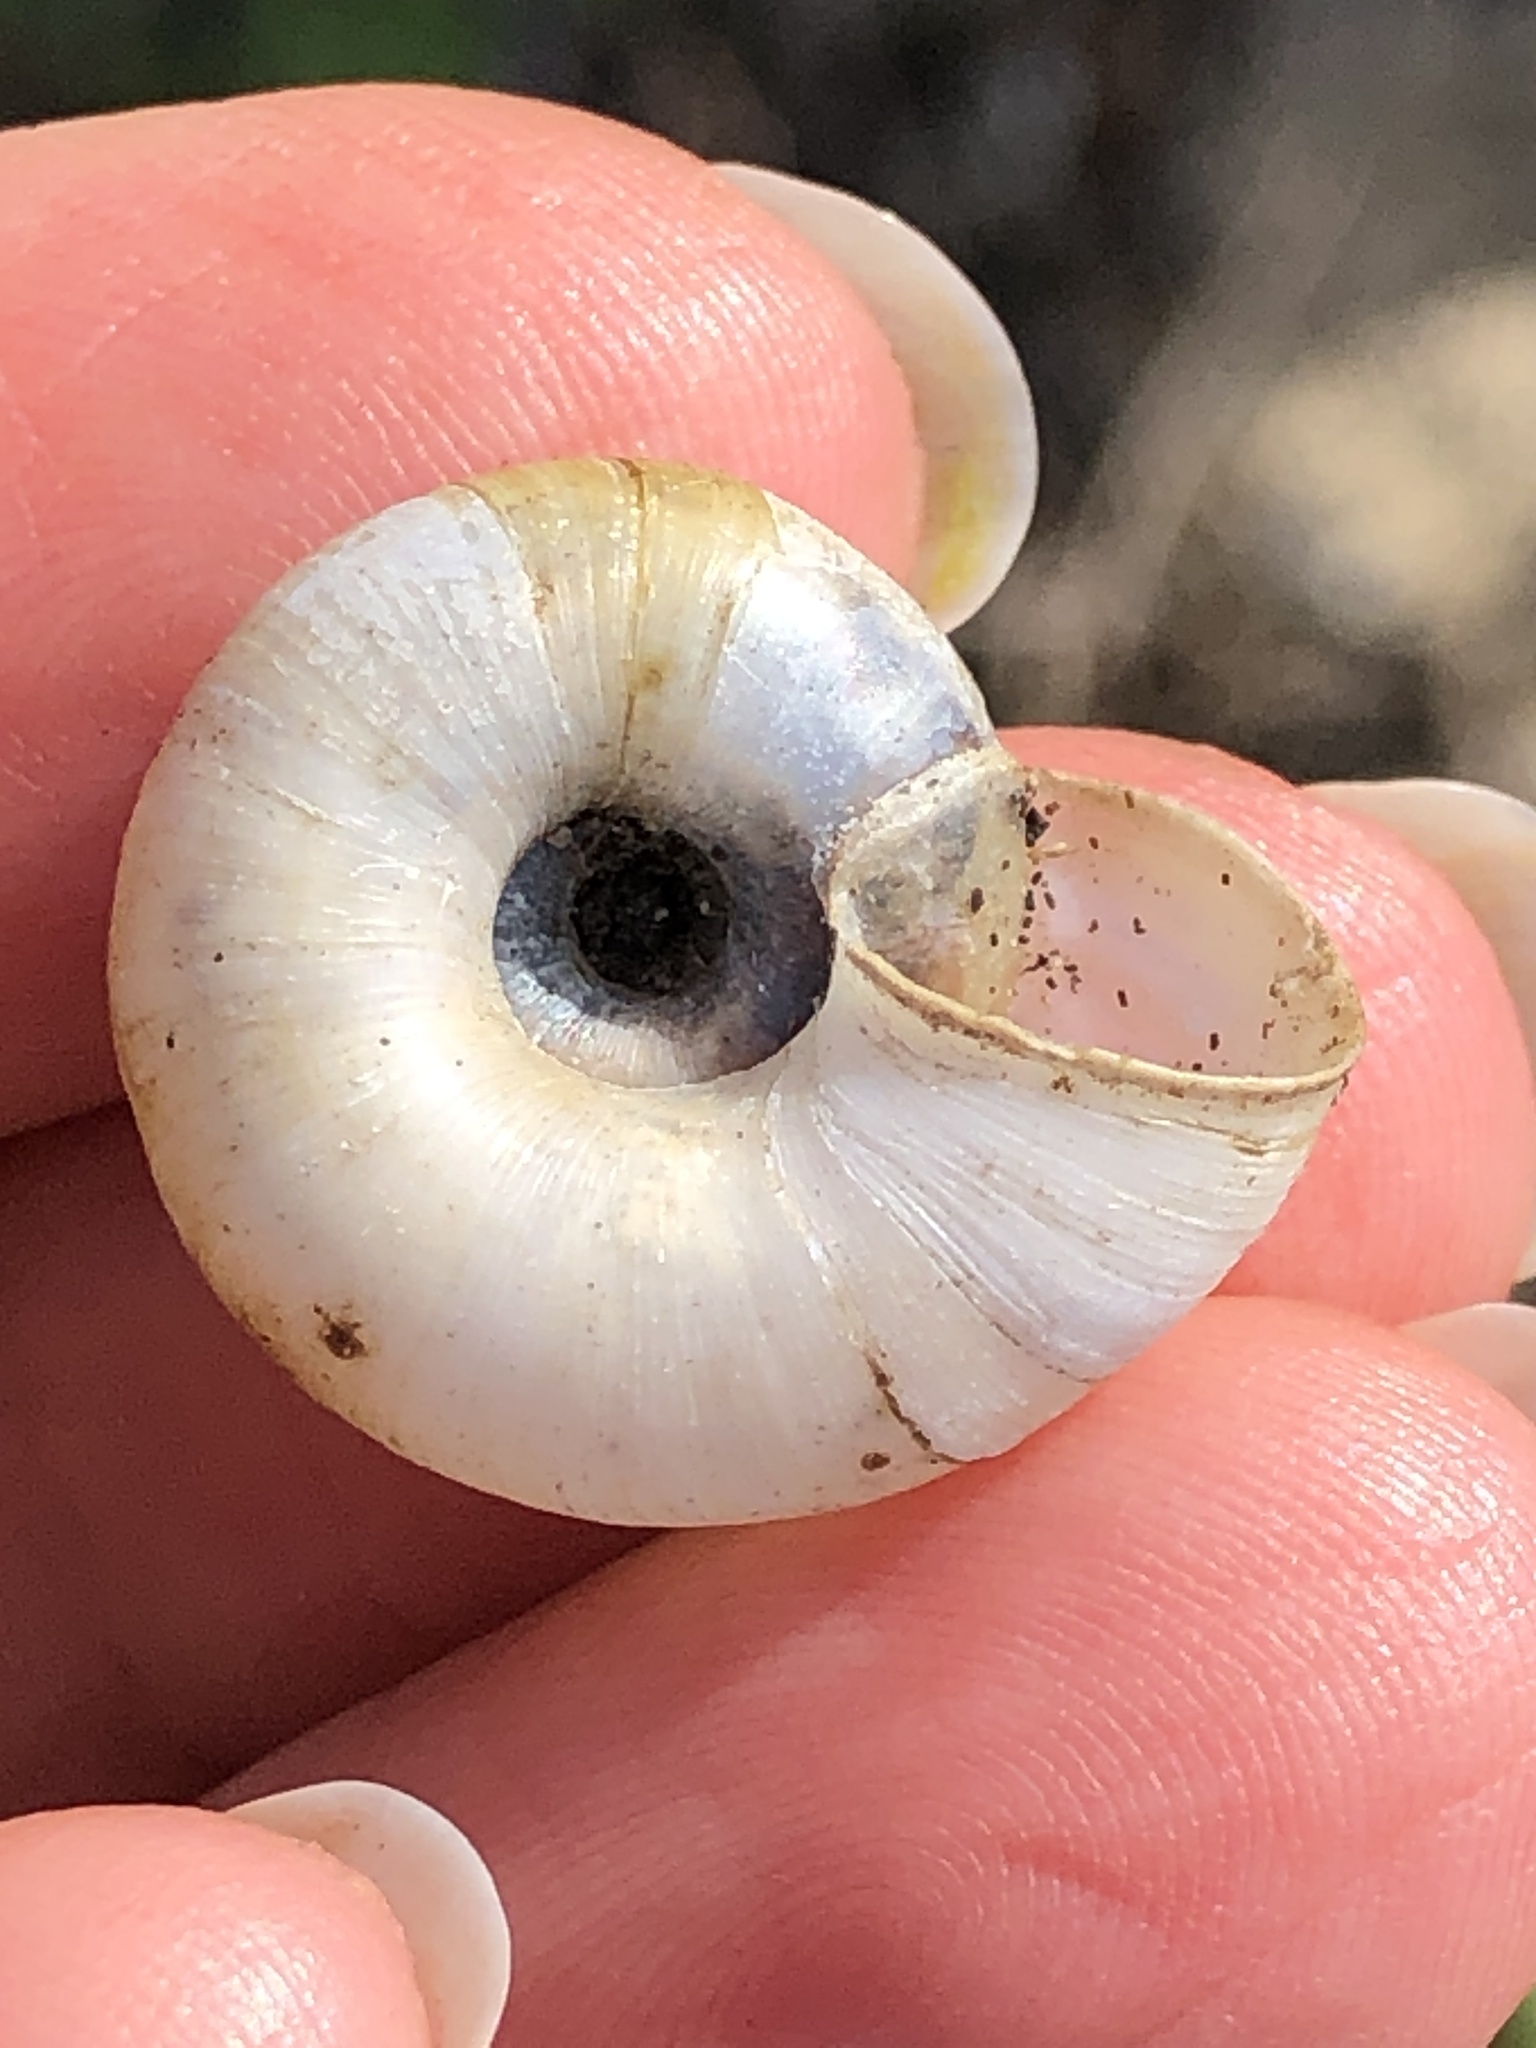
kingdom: Animalia
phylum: Mollusca
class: Gastropoda
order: Stylommatophora
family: Haplotrematidae
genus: Haplotrema
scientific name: Haplotrema minimum
